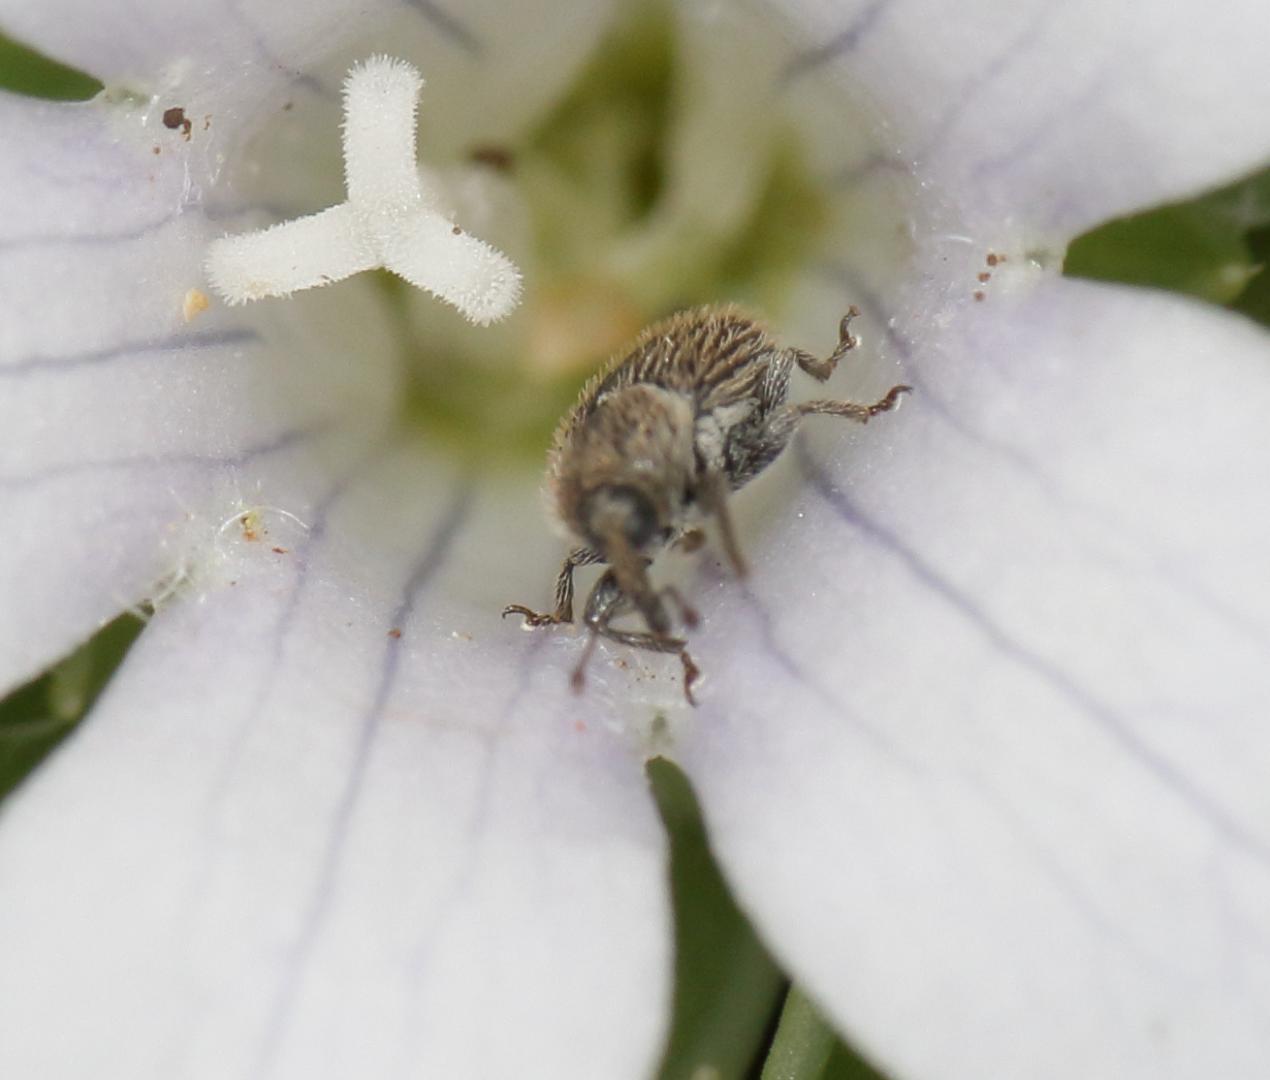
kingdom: Plantae
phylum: Tracheophyta
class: Magnoliopsida
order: Asterales
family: Campanulaceae
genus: Craterocapsa
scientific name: Craterocapsa tarsodes
